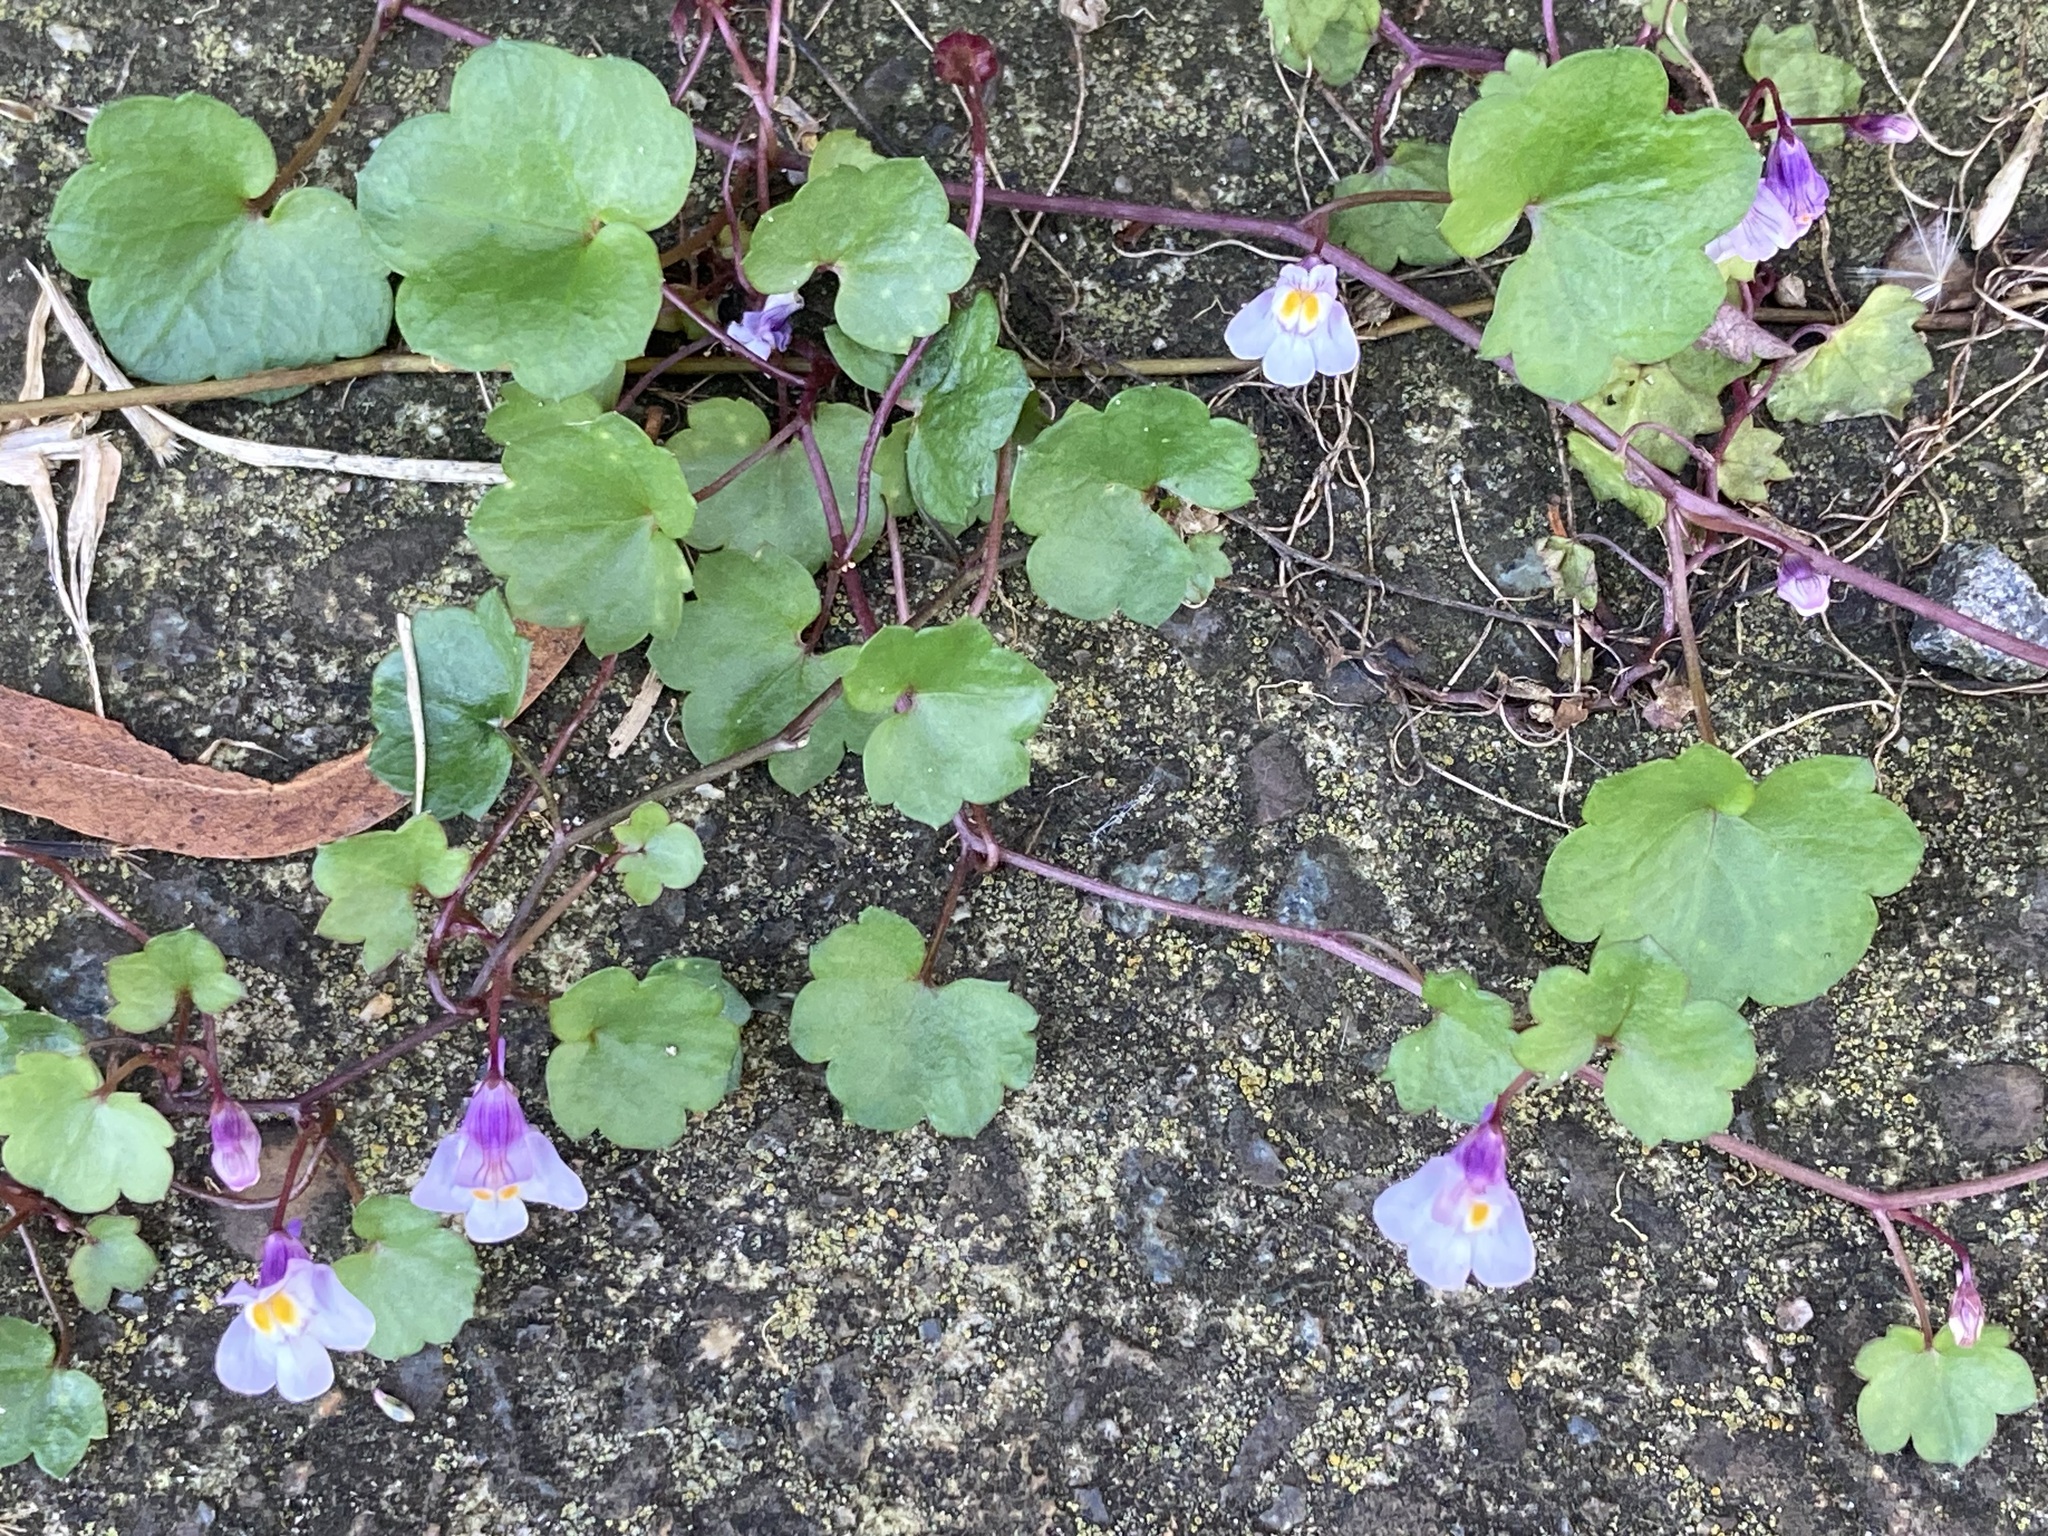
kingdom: Plantae
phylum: Tracheophyta
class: Magnoliopsida
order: Lamiales
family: Plantaginaceae
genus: Cymbalaria
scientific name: Cymbalaria muralis
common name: Ivy-leaved toadflax
